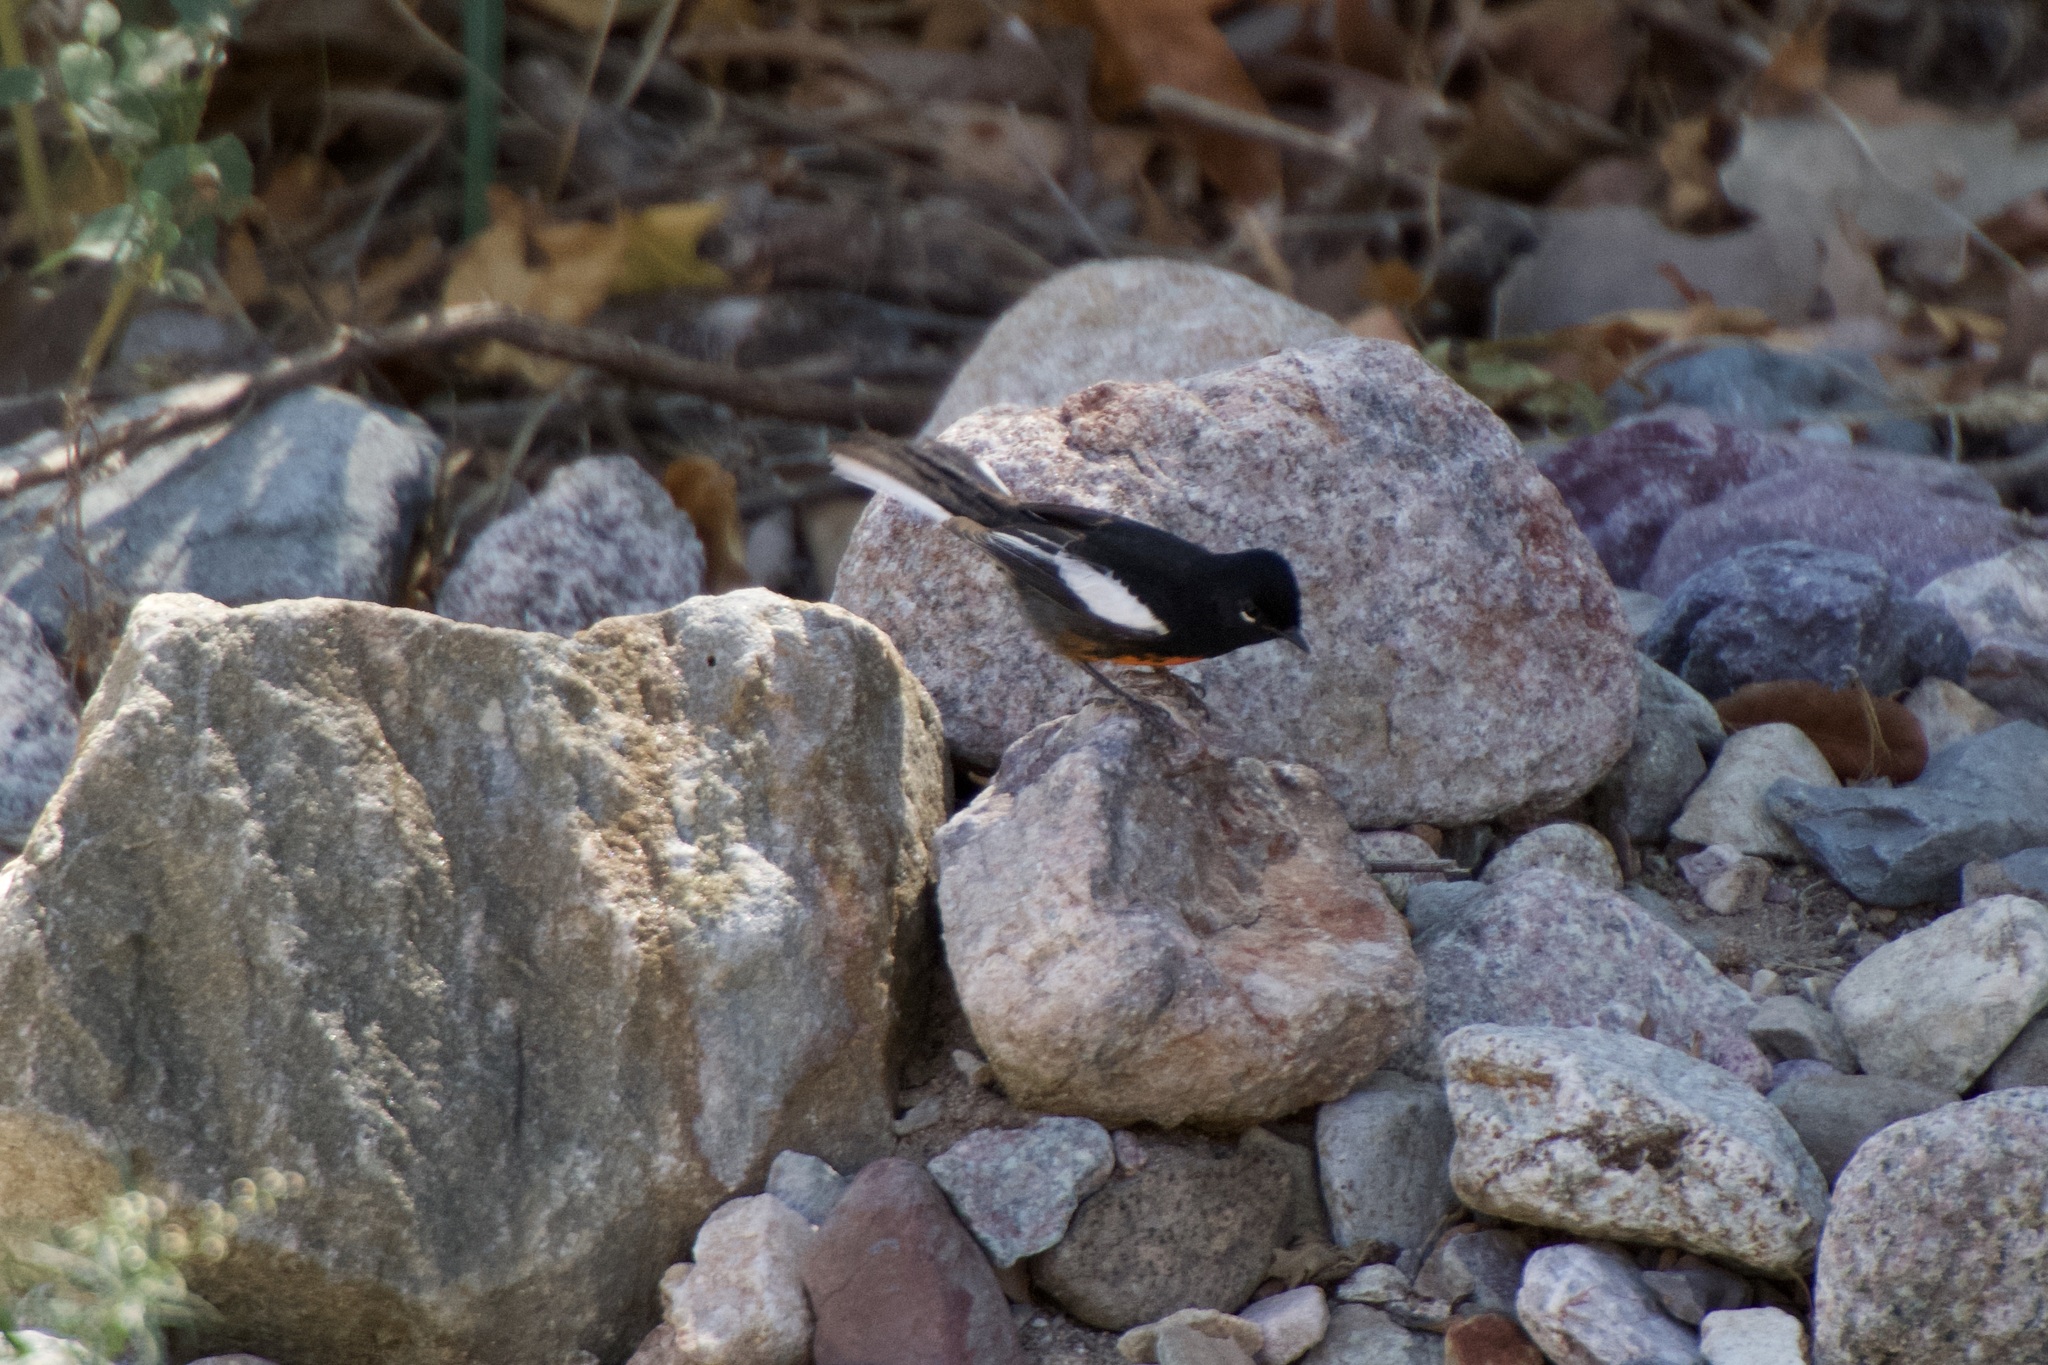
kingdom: Animalia
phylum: Chordata
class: Aves
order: Passeriformes
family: Parulidae
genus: Myioborus
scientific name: Myioborus pictus
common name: Painted whitestart
